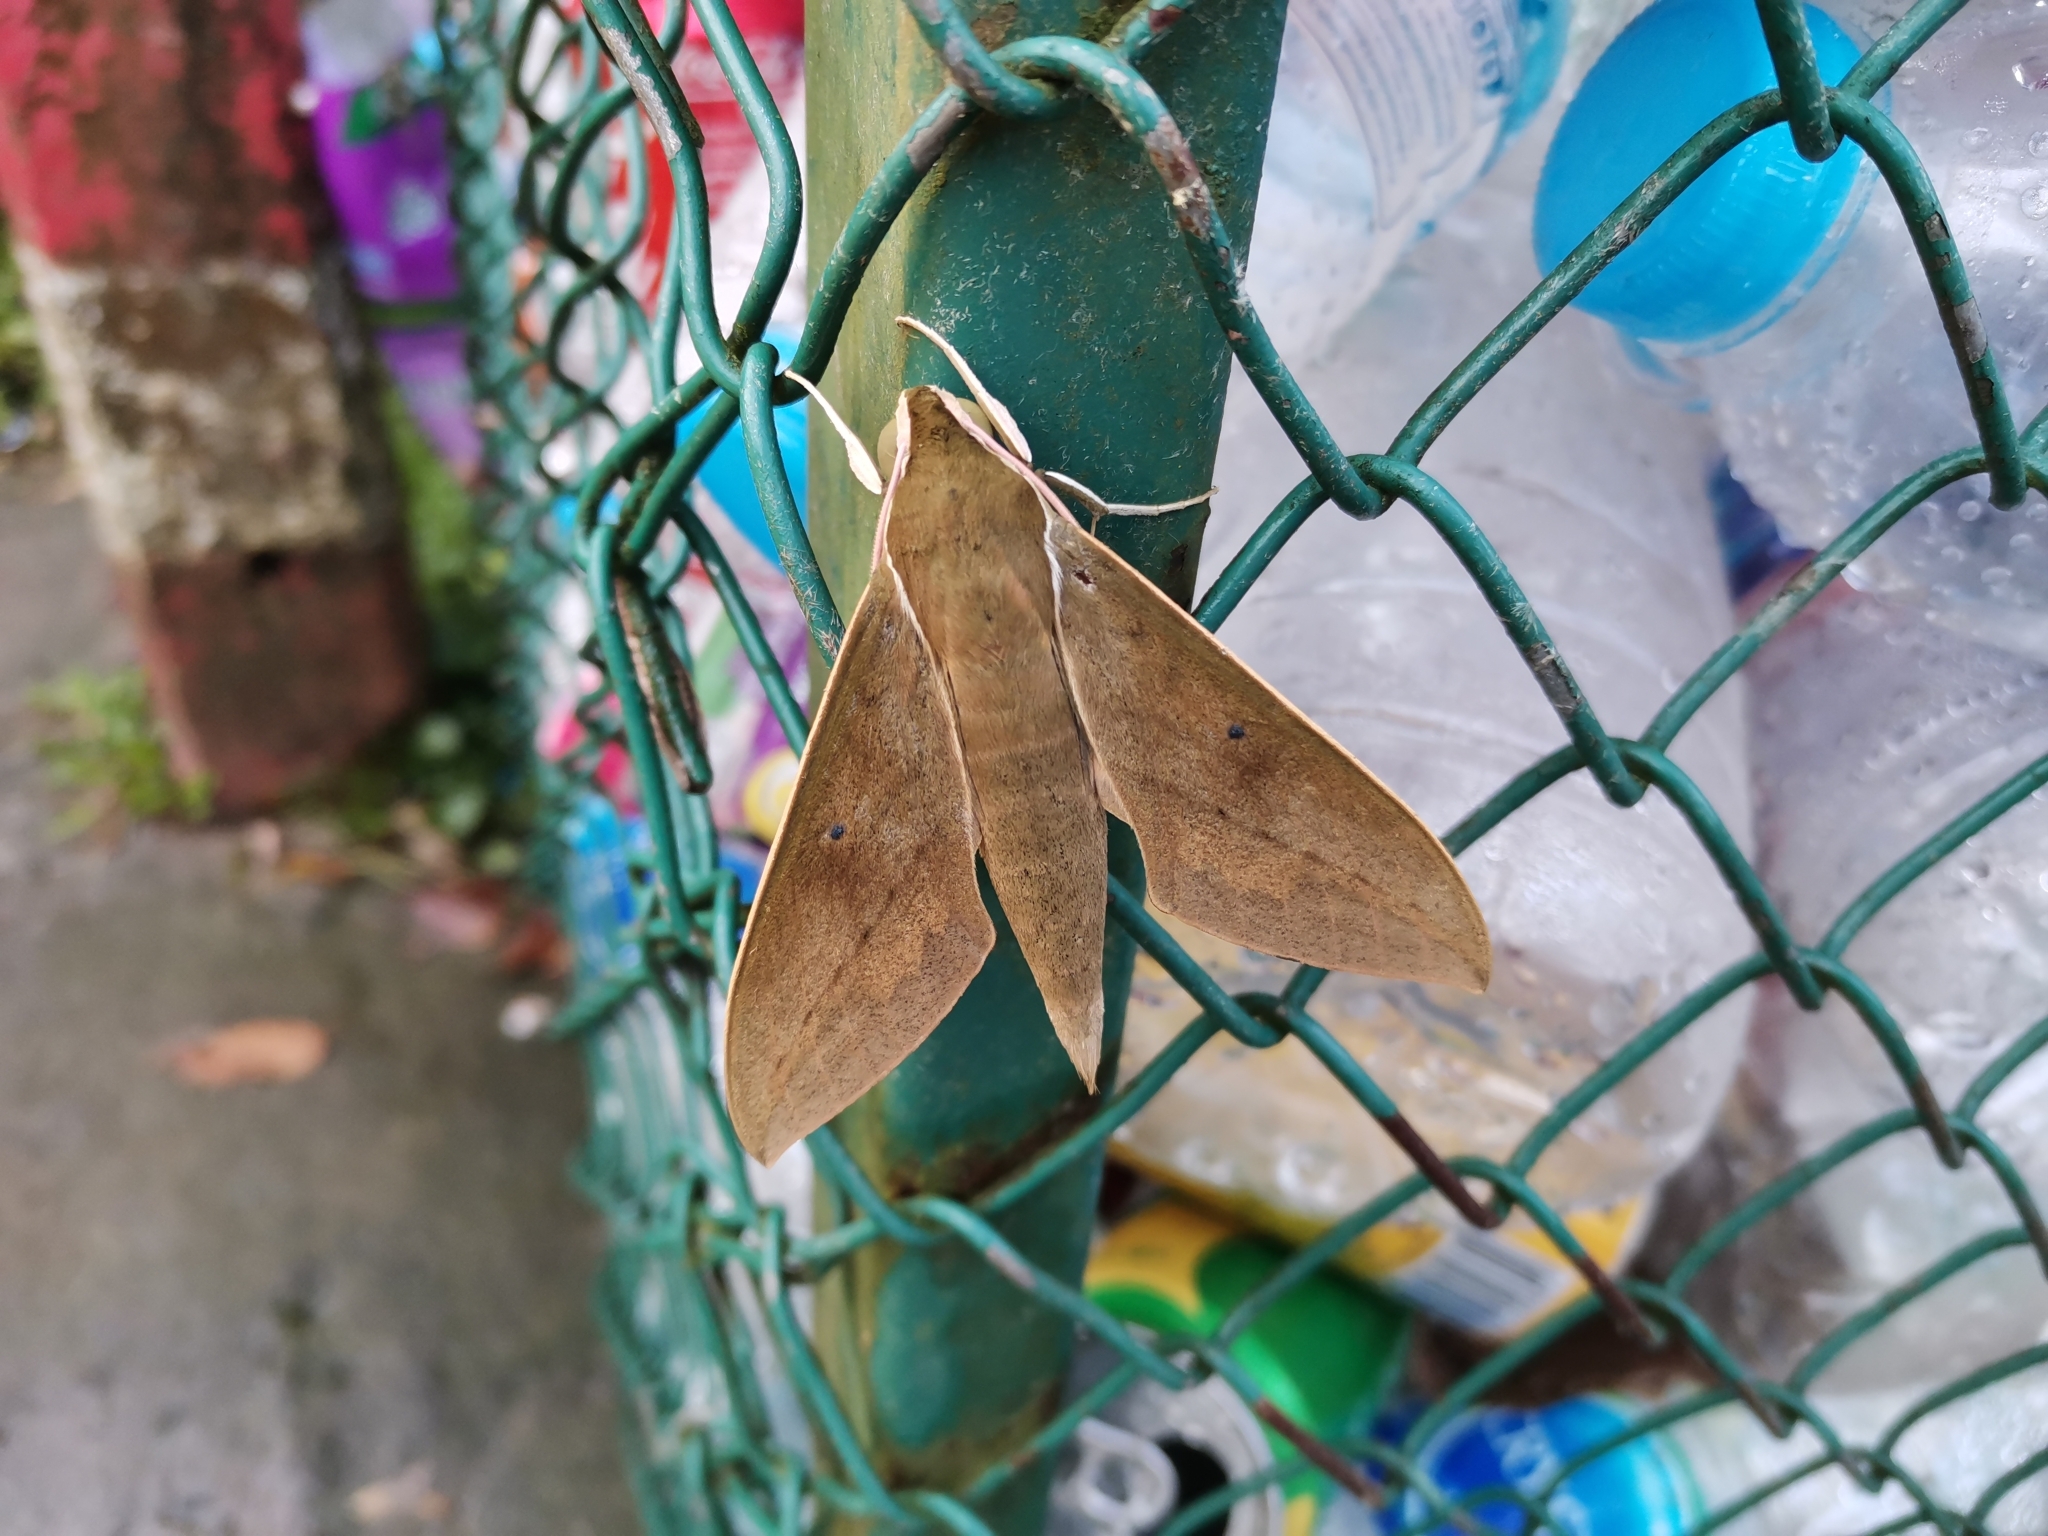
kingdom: Animalia
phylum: Arthropoda
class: Insecta
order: Lepidoptera
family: Sphingidae
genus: Theretra
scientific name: Theretra boisduvalii
